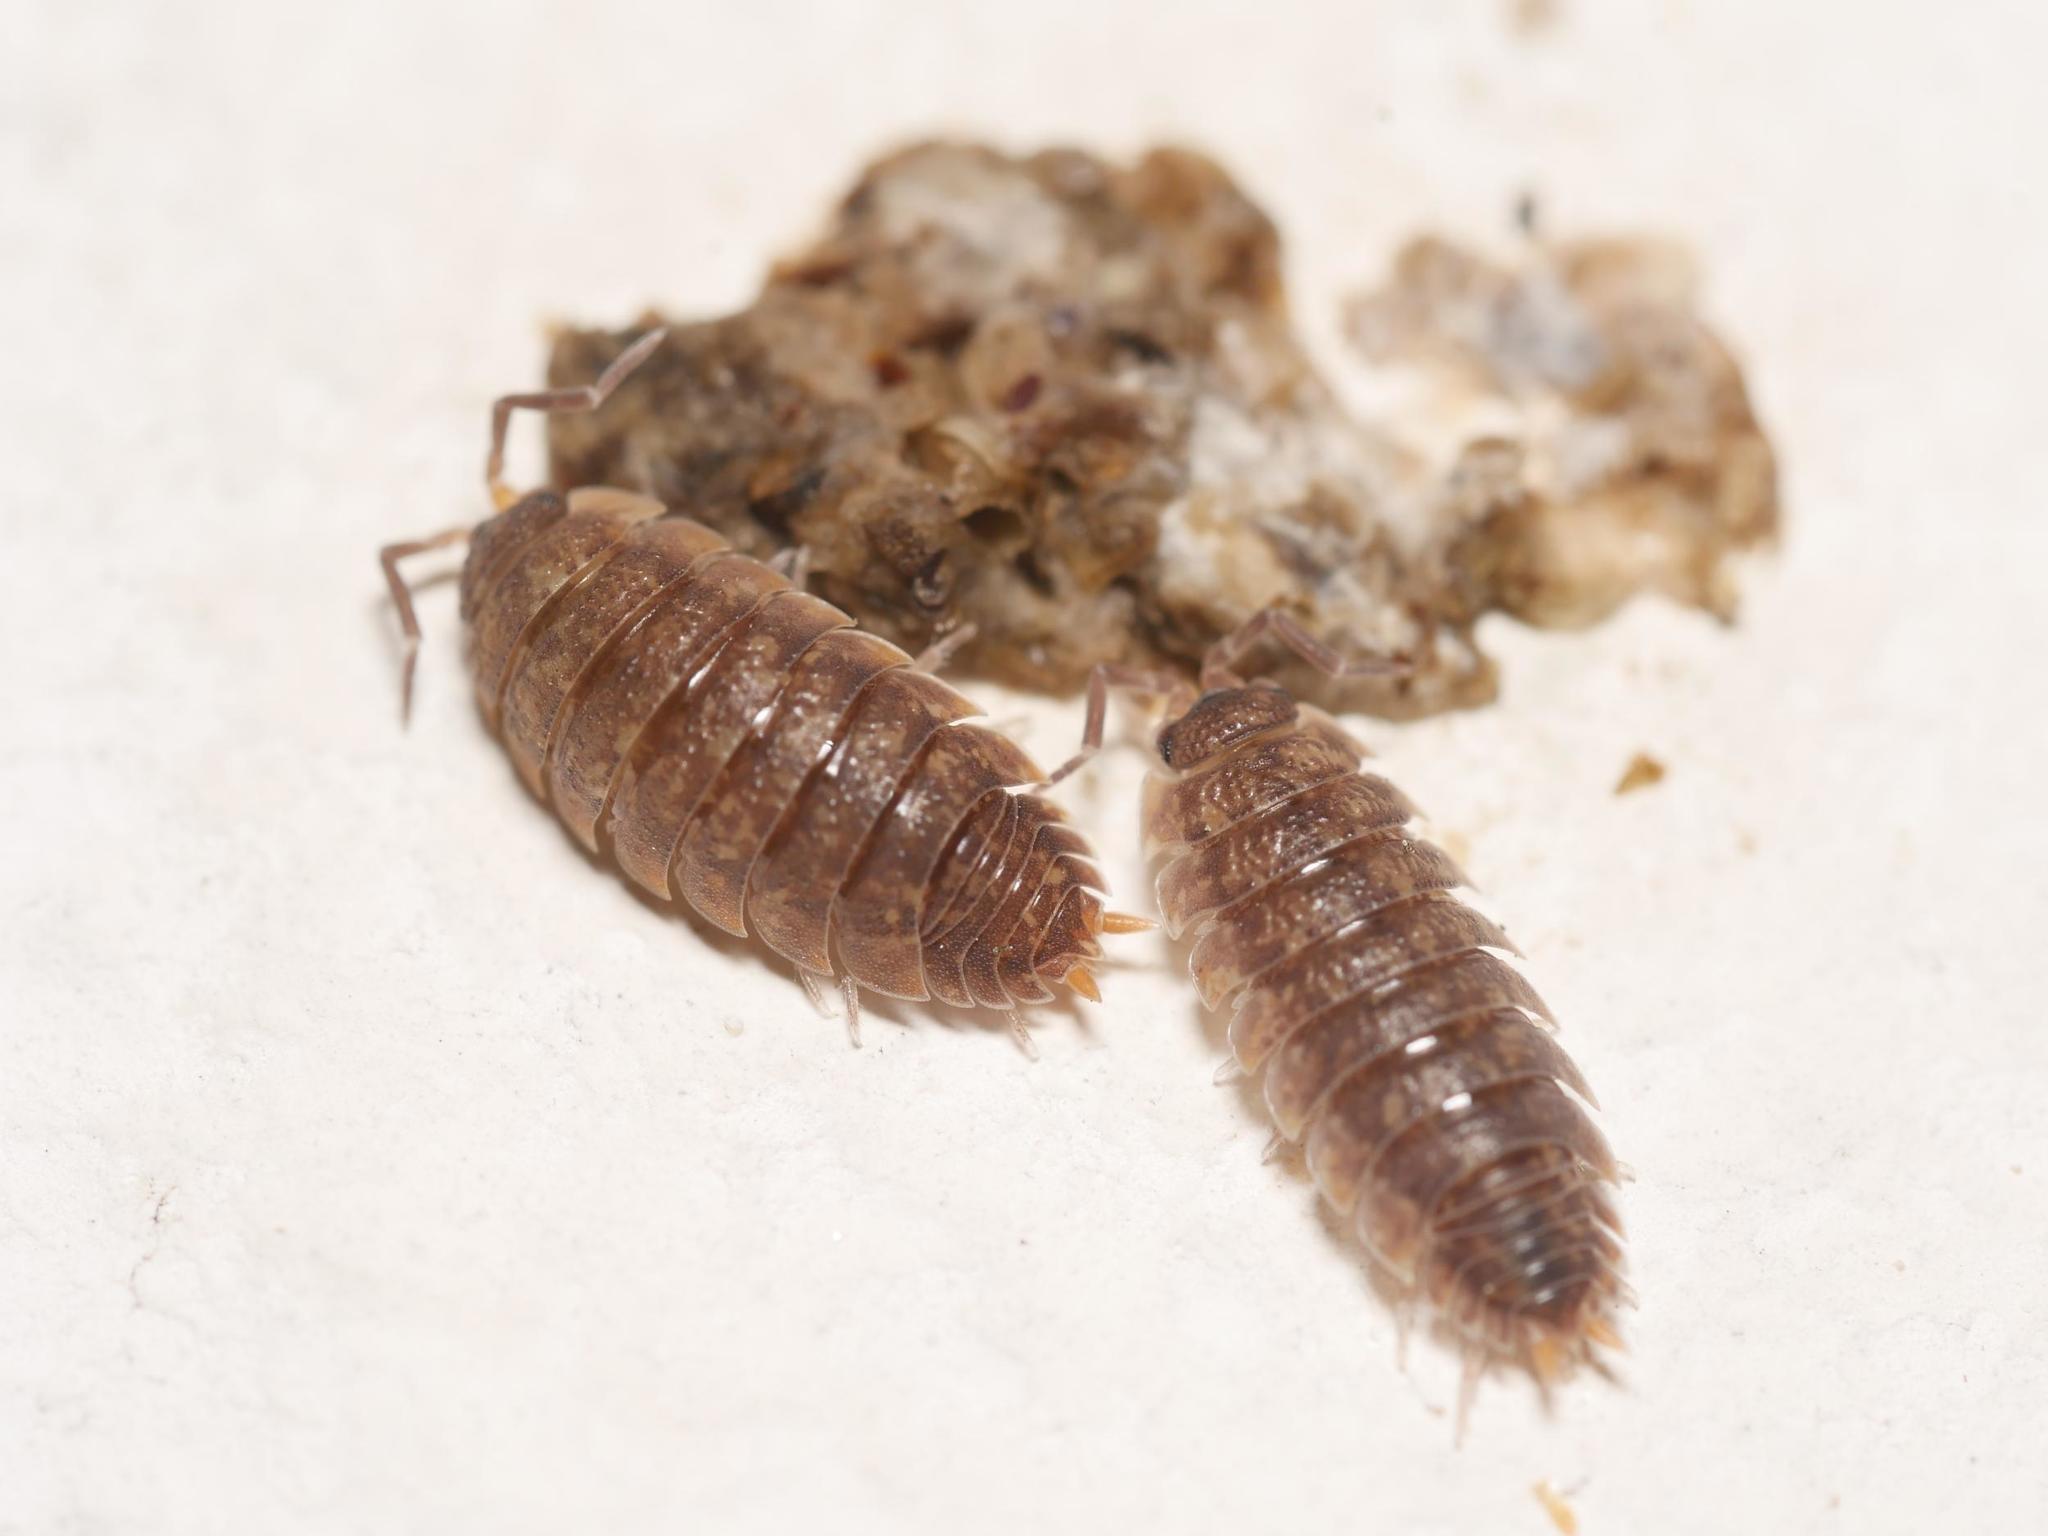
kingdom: Animalia
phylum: Arthropoda
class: Malacostraca
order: Isopoda
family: Porcellionidae
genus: Porcellio
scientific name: Porcellio scaber
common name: Common rough woodlouse
